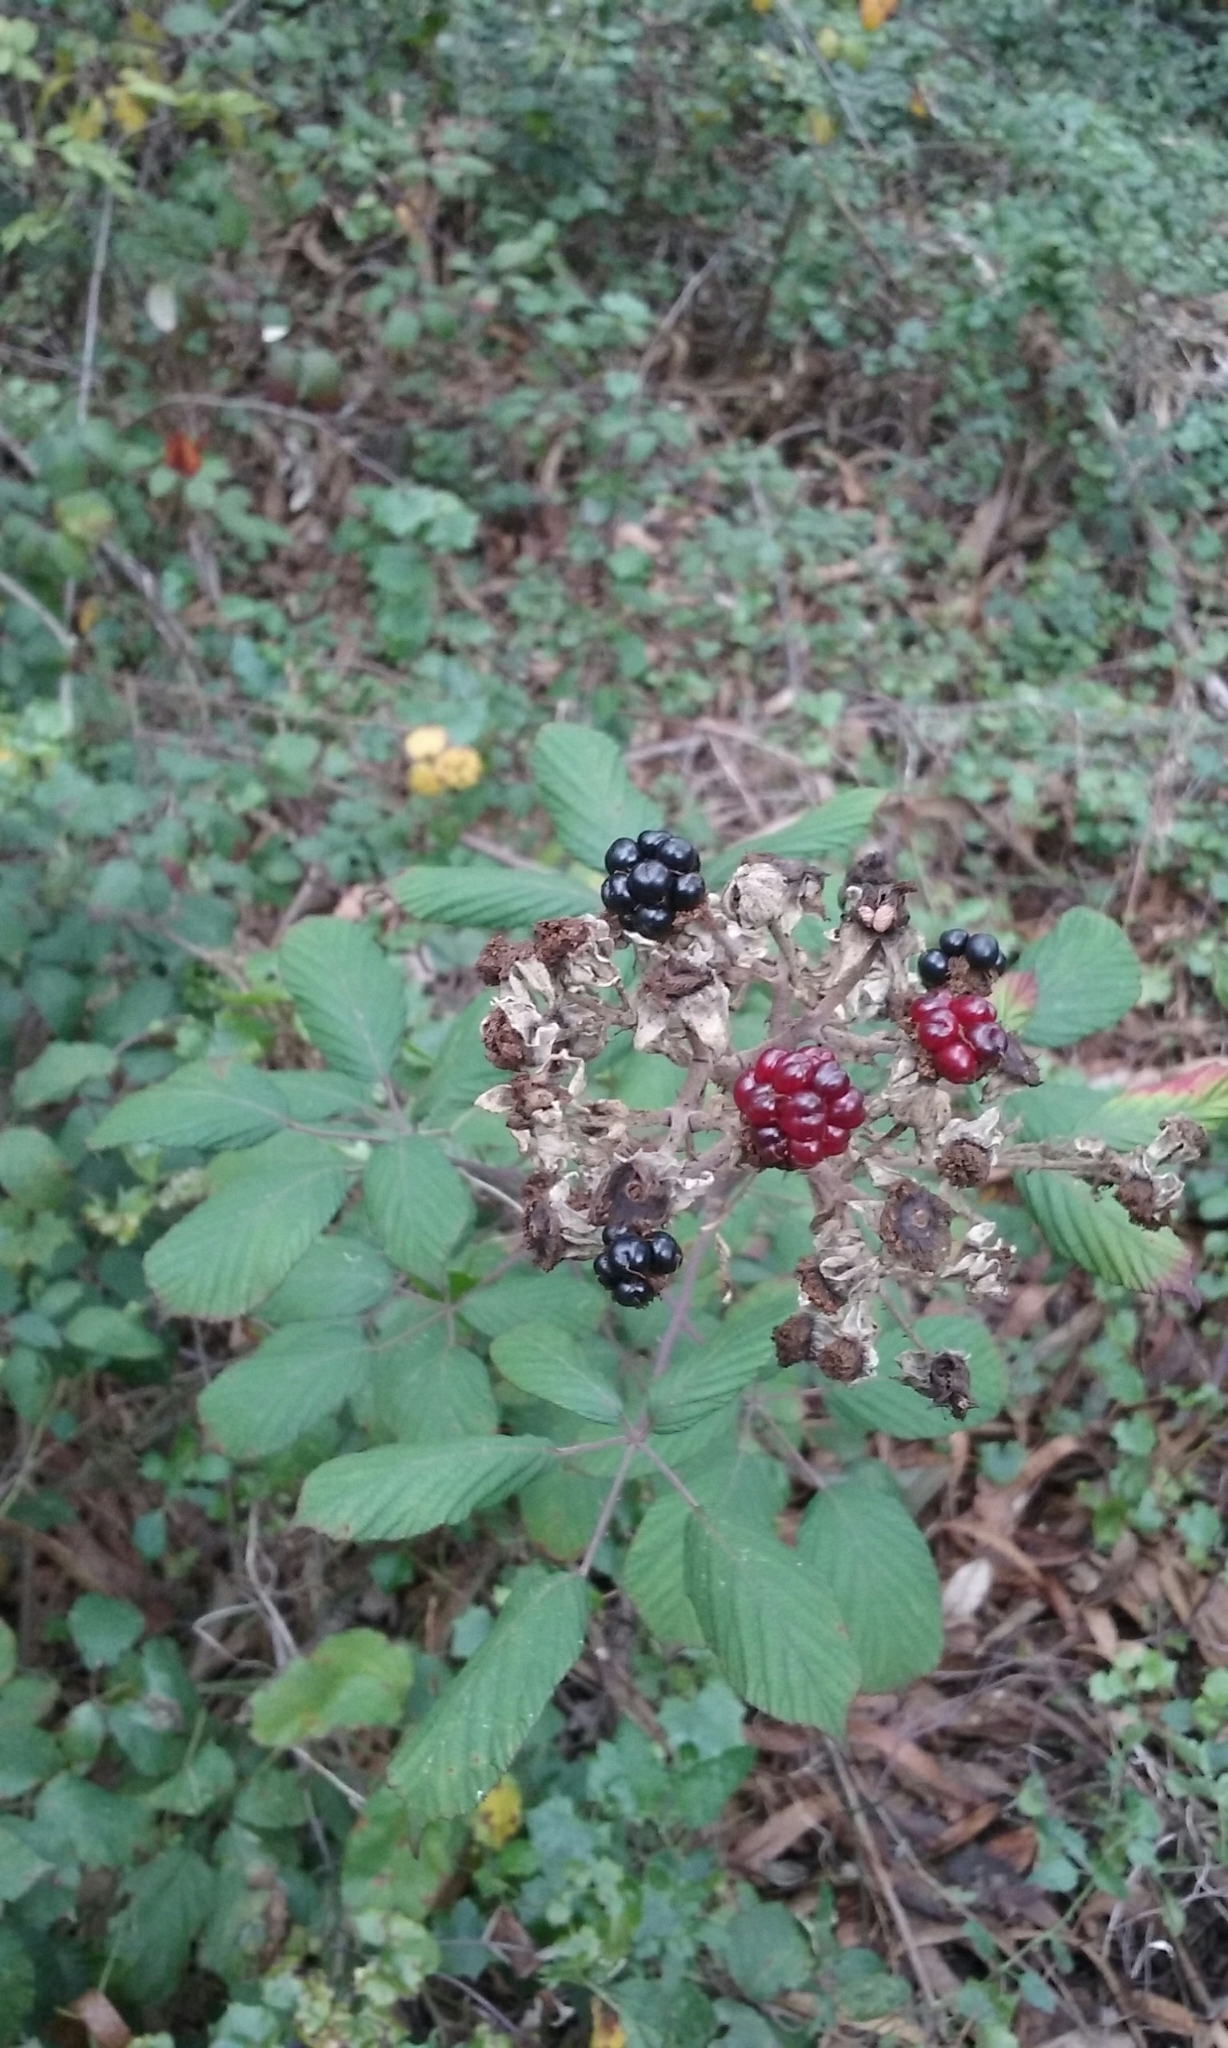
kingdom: Plantae
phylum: Tracheophyta
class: Magnoliopsida
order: Rosales
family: Rosaceae
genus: Rubus
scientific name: Rubus armeniacus
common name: Himalayan blackberry
